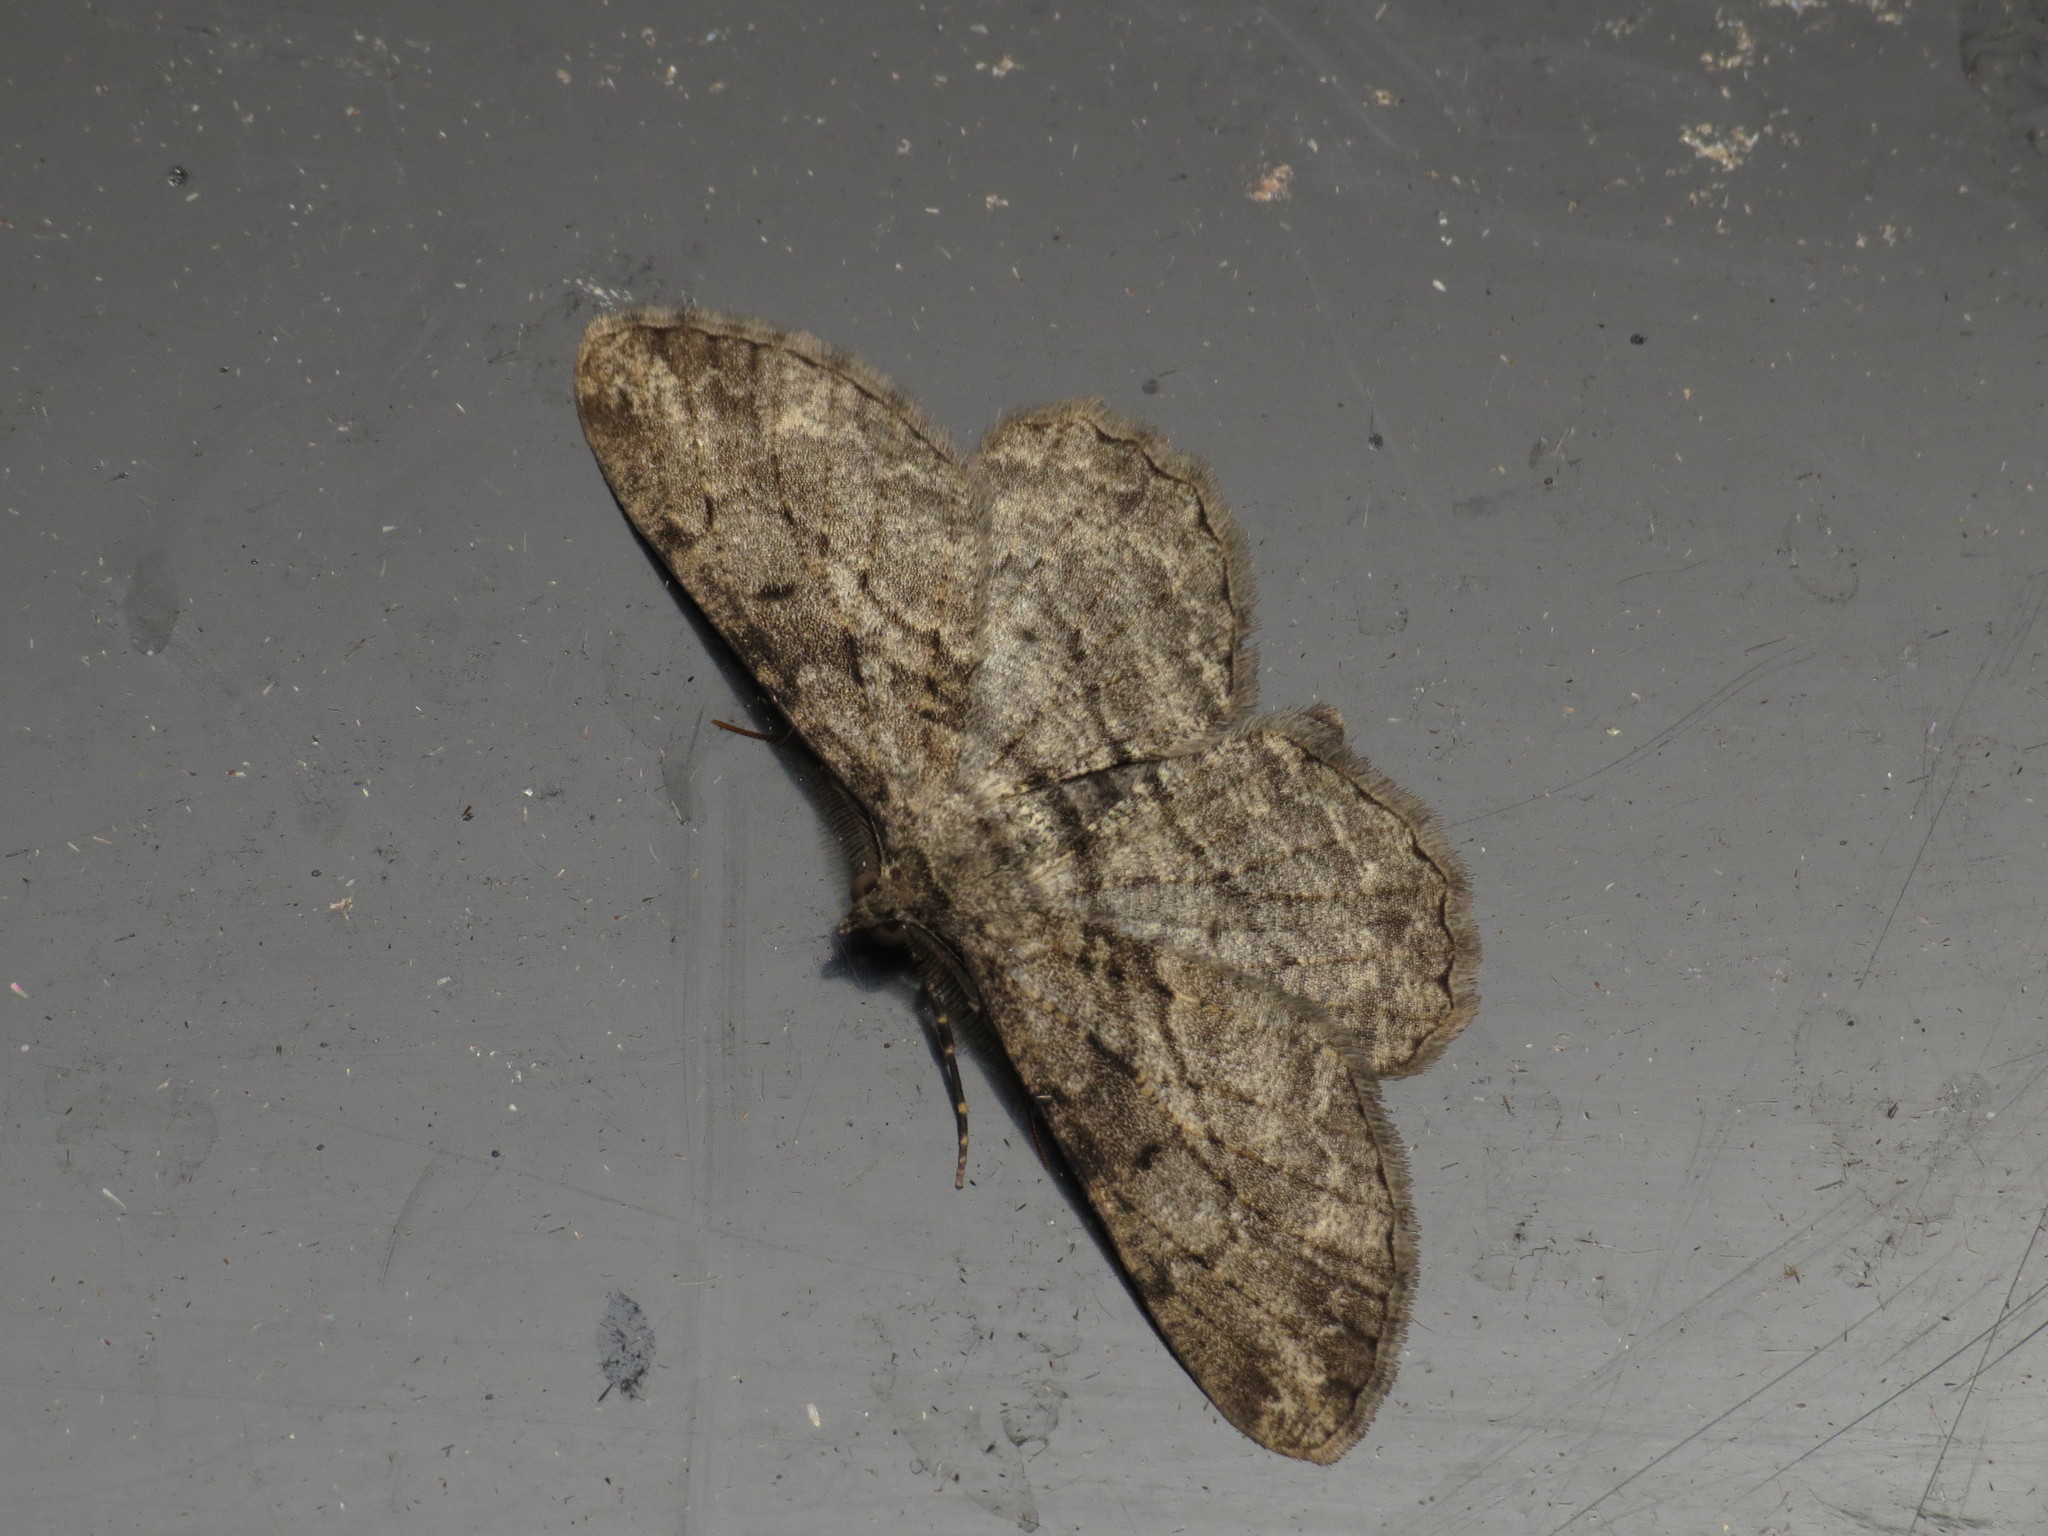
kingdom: Animalia
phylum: Arthropoda
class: Insecta
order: Lepidoptera
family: Geometridae
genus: Peribatodes
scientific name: Peribatodes rhomboidaria
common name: Willow beauty
